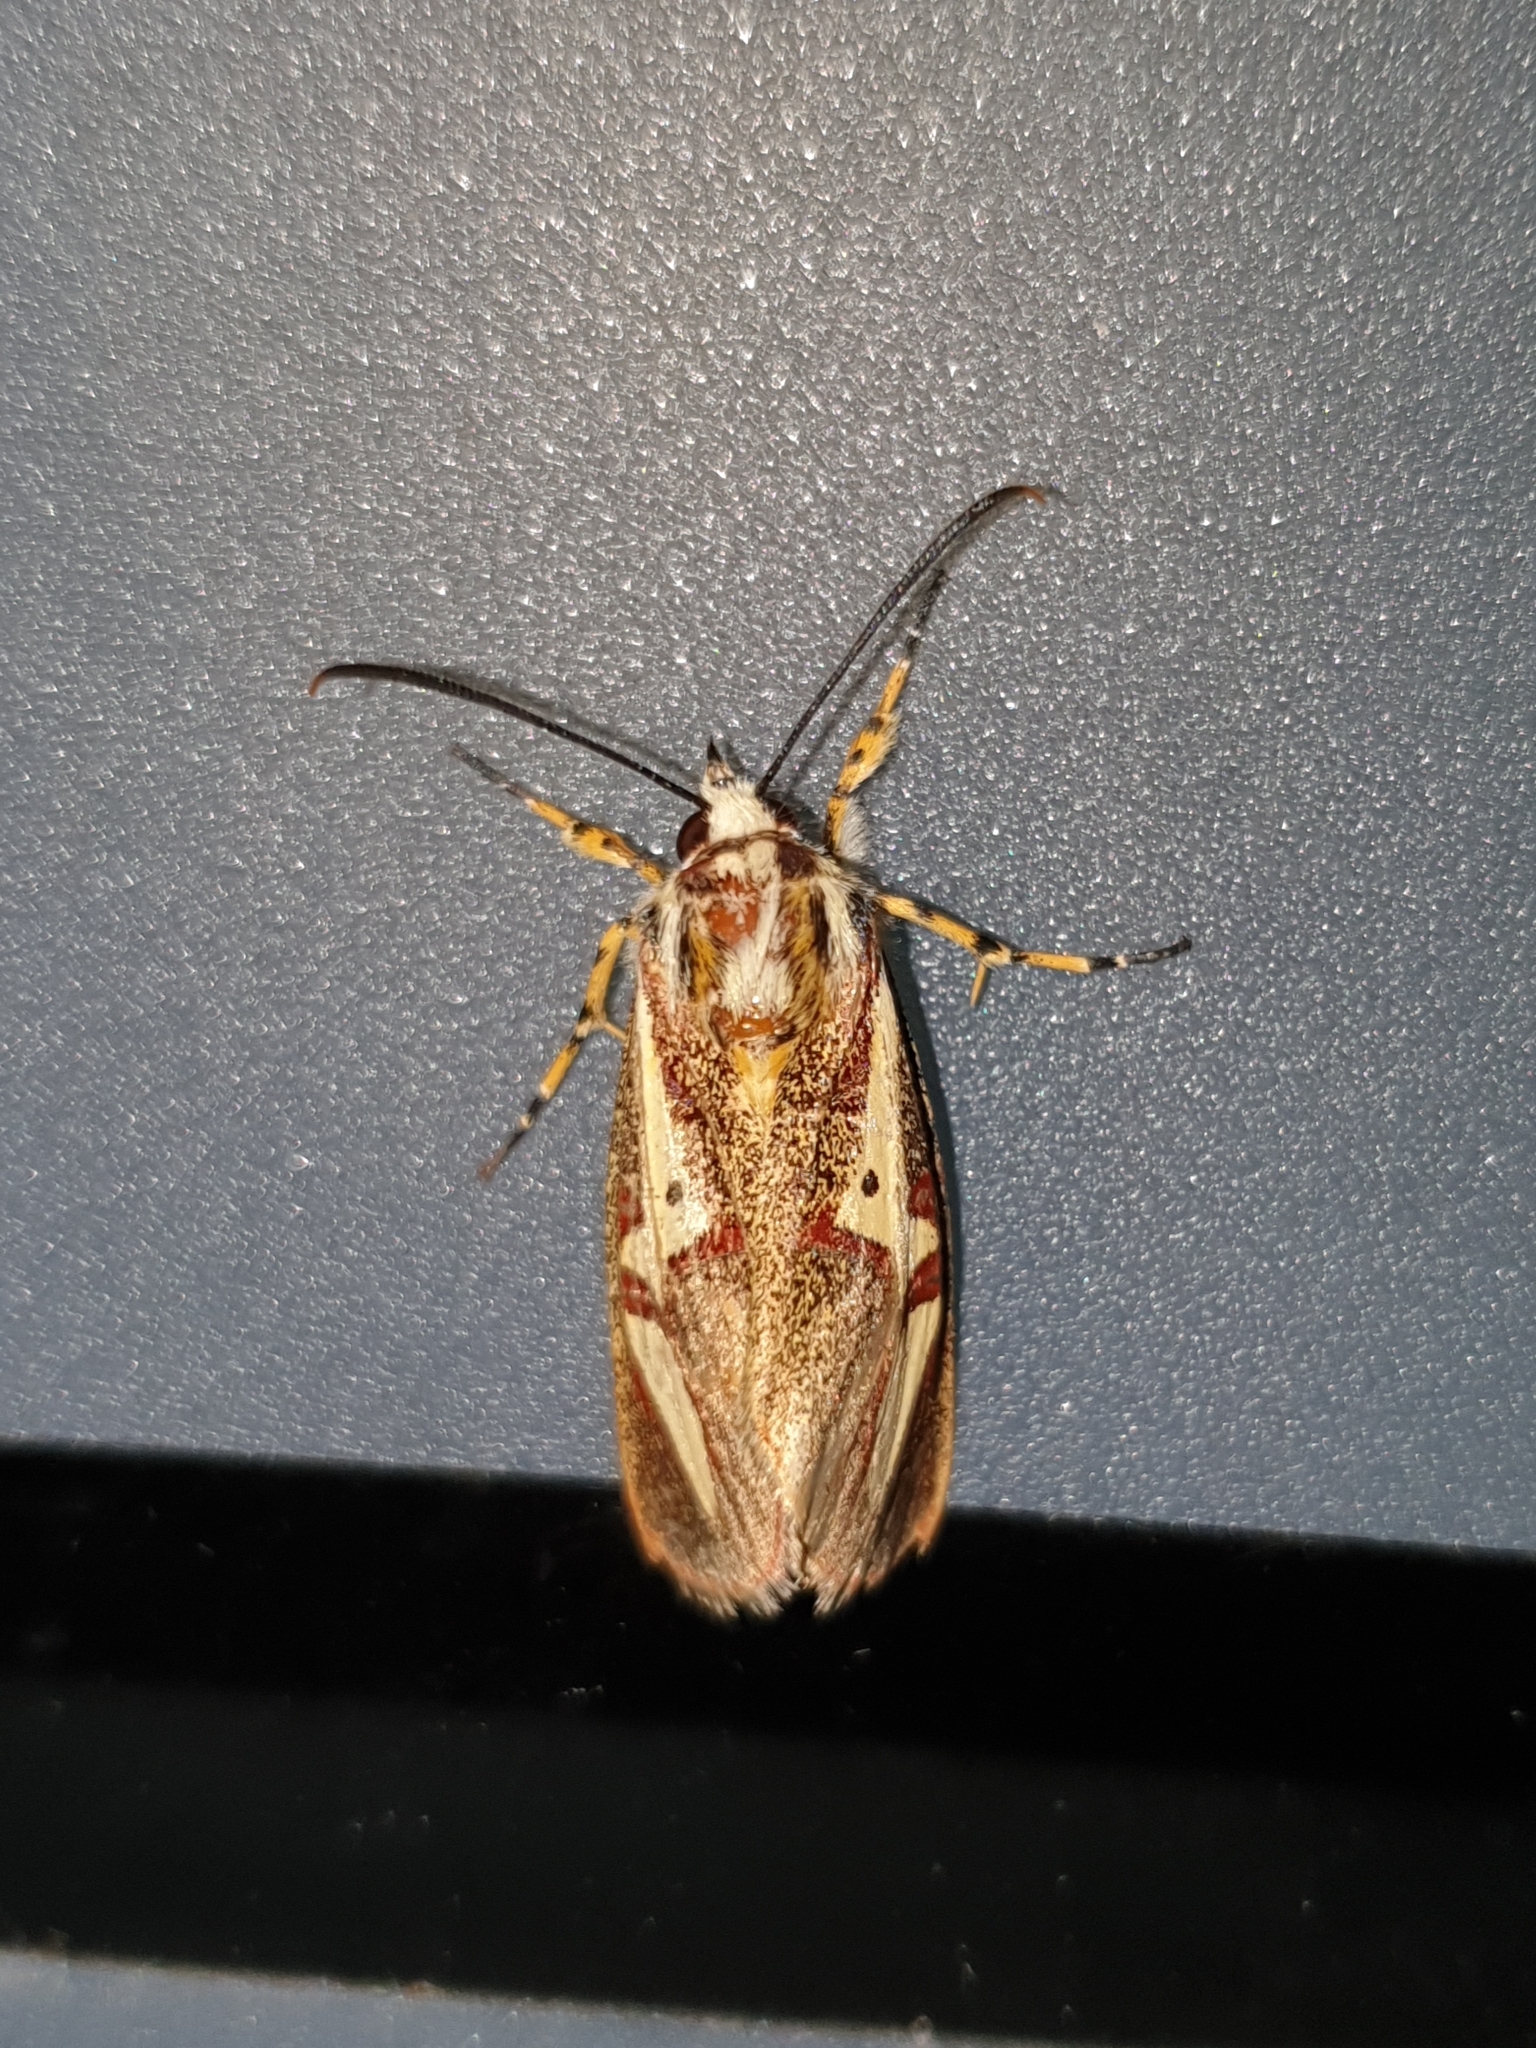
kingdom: Animalia
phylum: Arthropoda
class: Insecta
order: Lepidoptera
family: Noctuidae
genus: Aegocera
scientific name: Aegocera venulia
